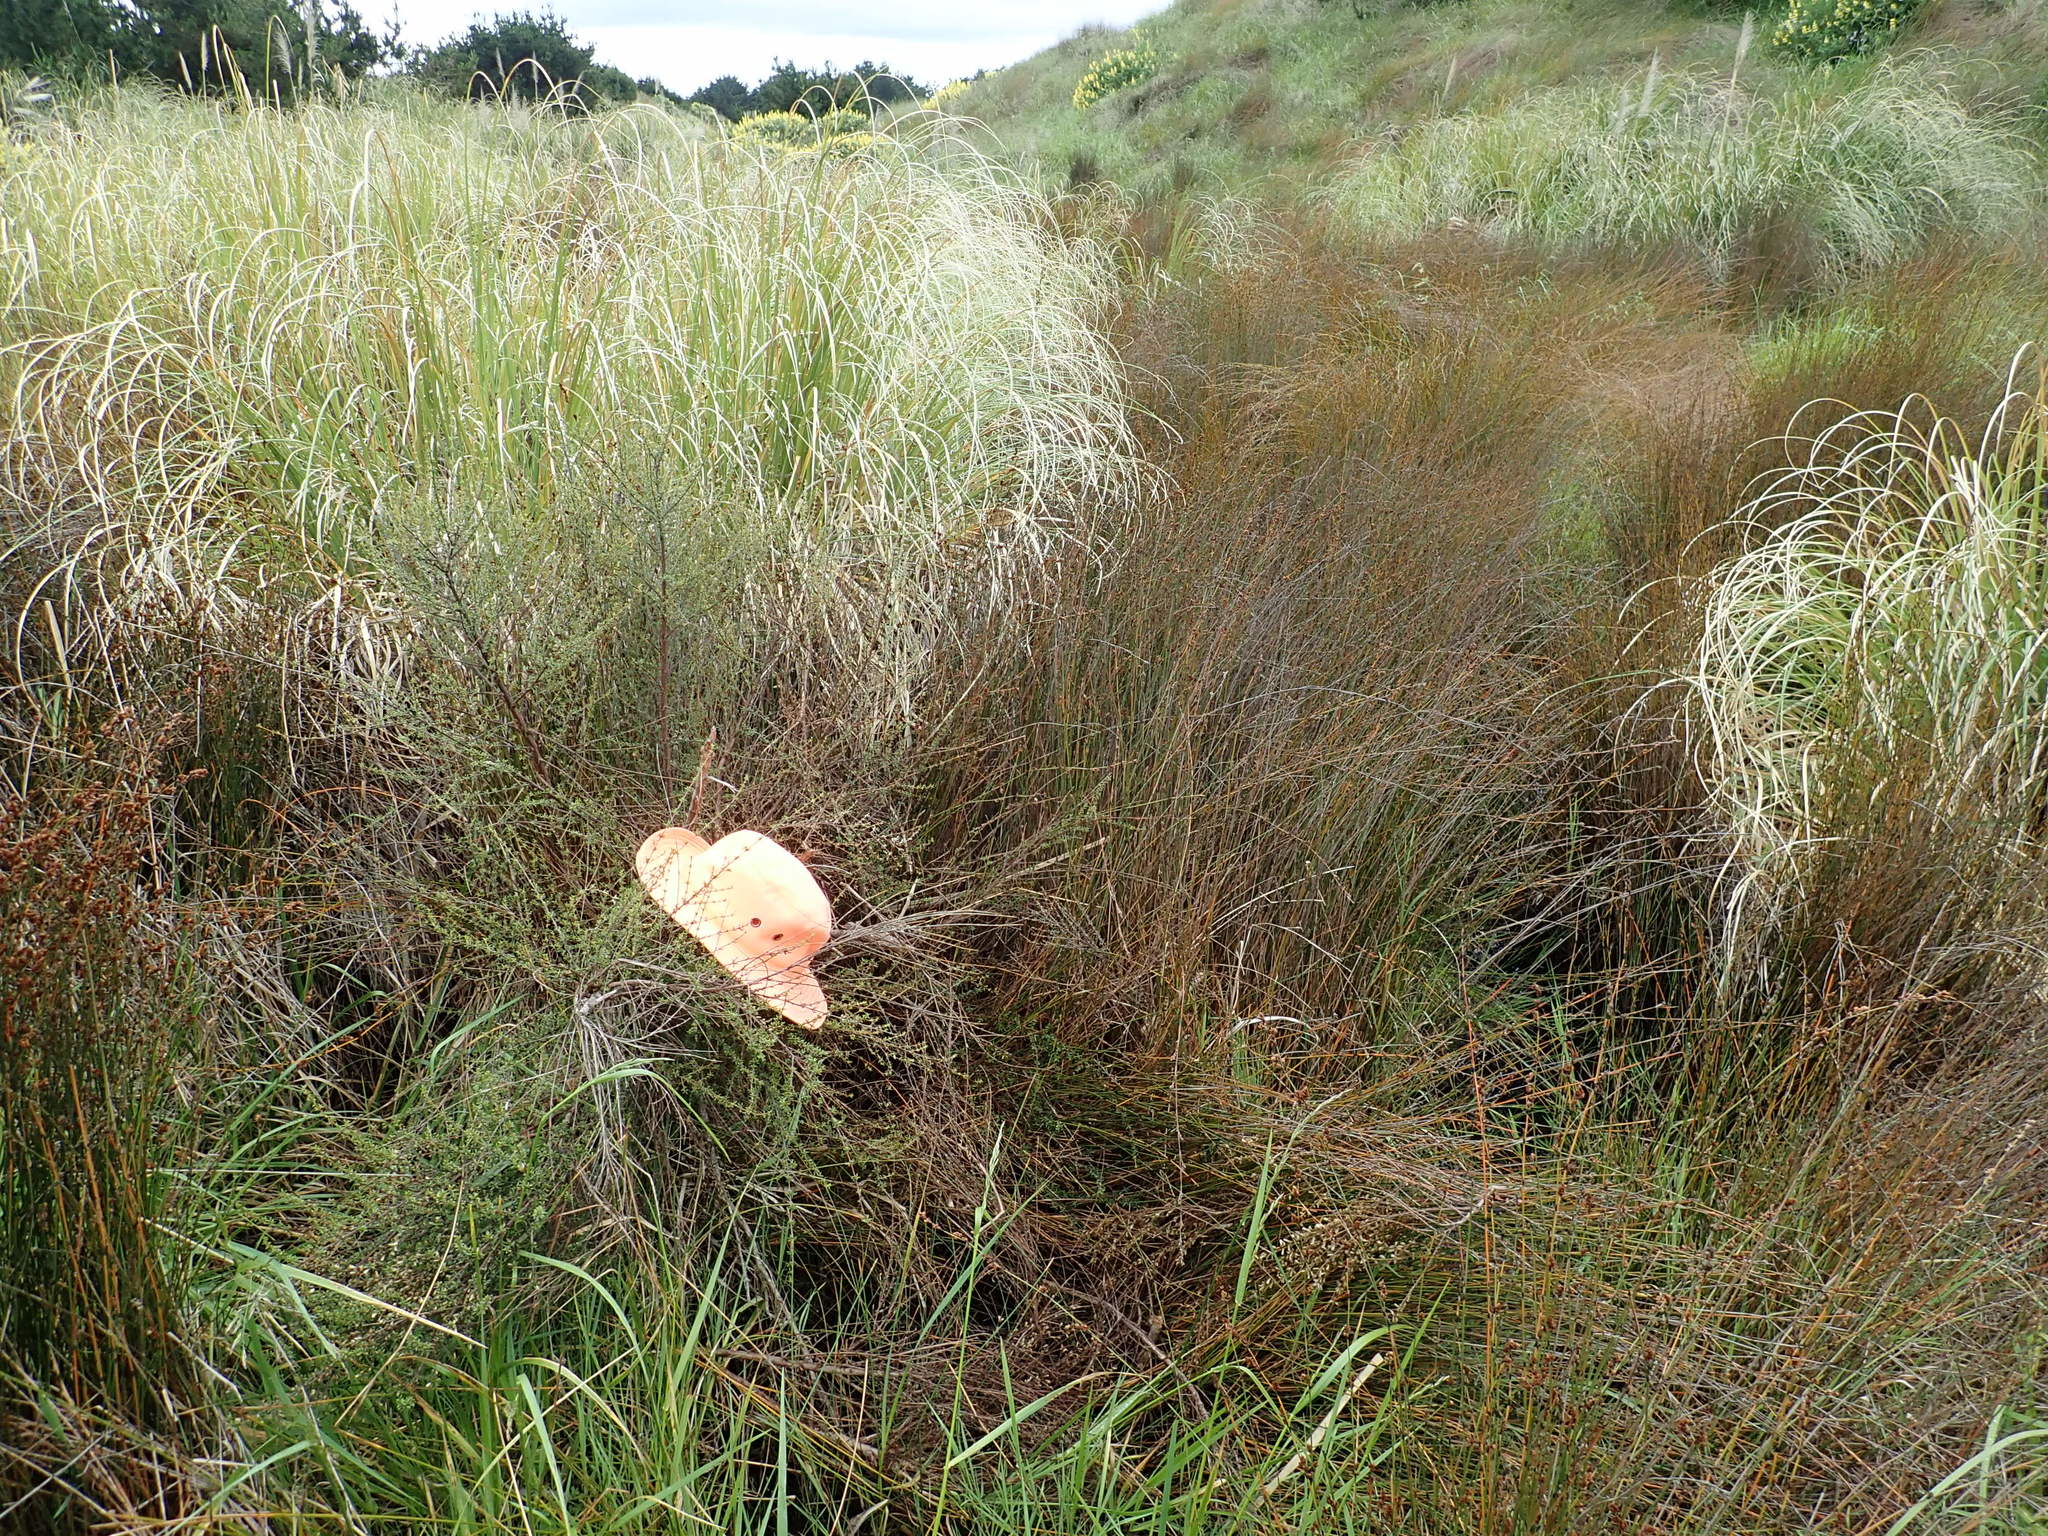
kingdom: Plantae
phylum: Tracheophyta
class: Magnoliopsida
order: Myrtales
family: Myrtaceae
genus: Leptospermum
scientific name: Leptospermum scoparium
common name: Broom tea-tree
